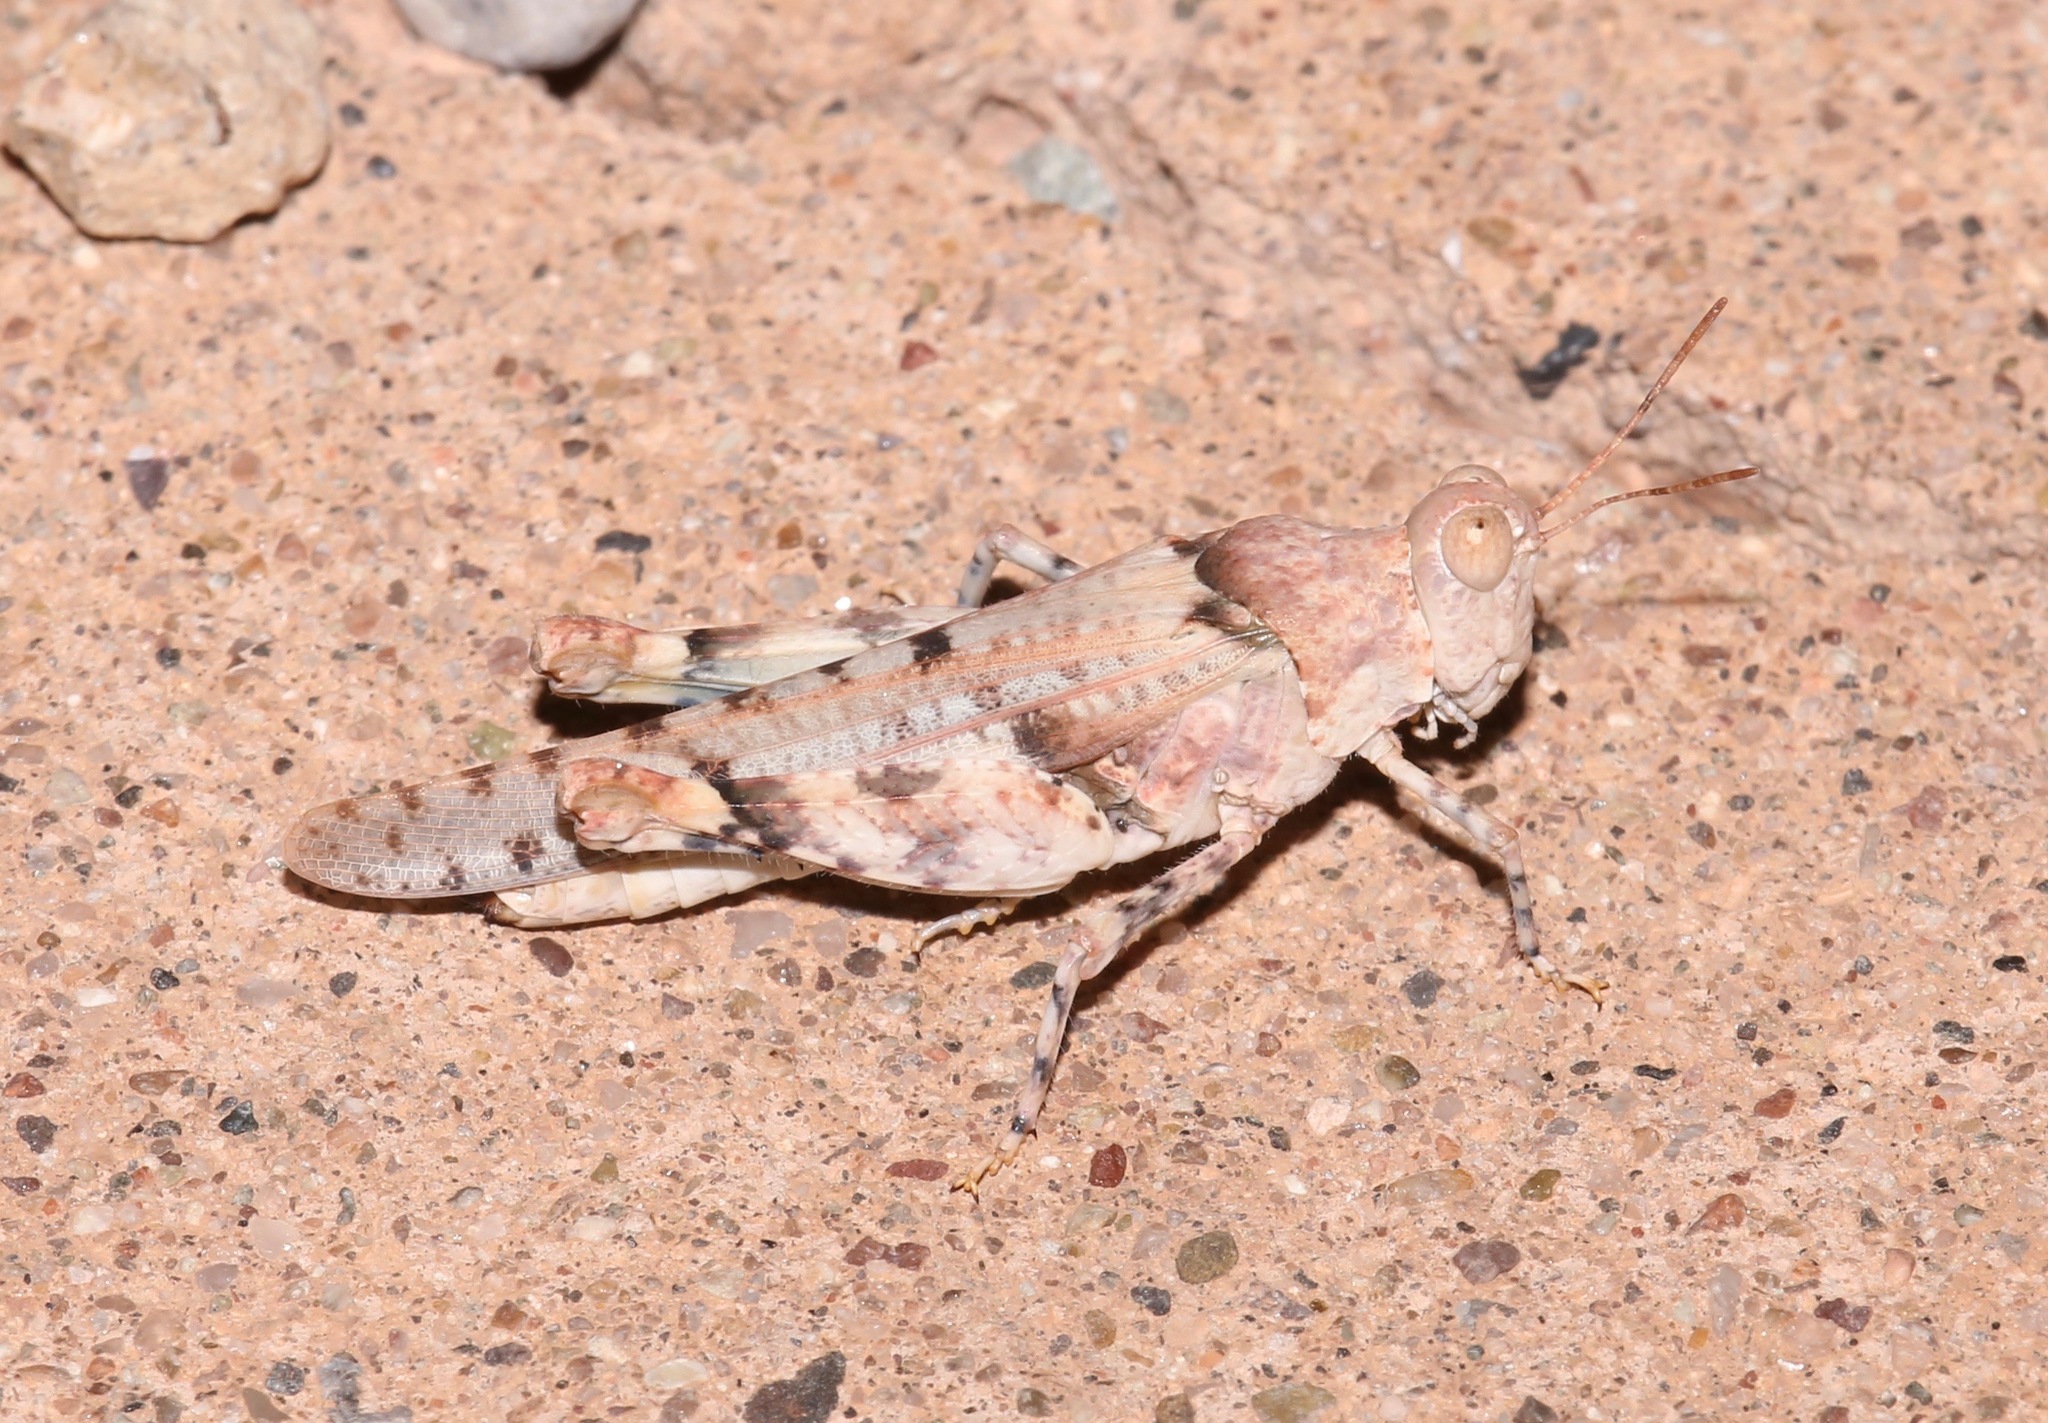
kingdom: Animalia
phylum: Arthropoda
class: Insecta
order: Orthoptera
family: Acrididae
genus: Cibolacris
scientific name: Cibolacris parviceps
